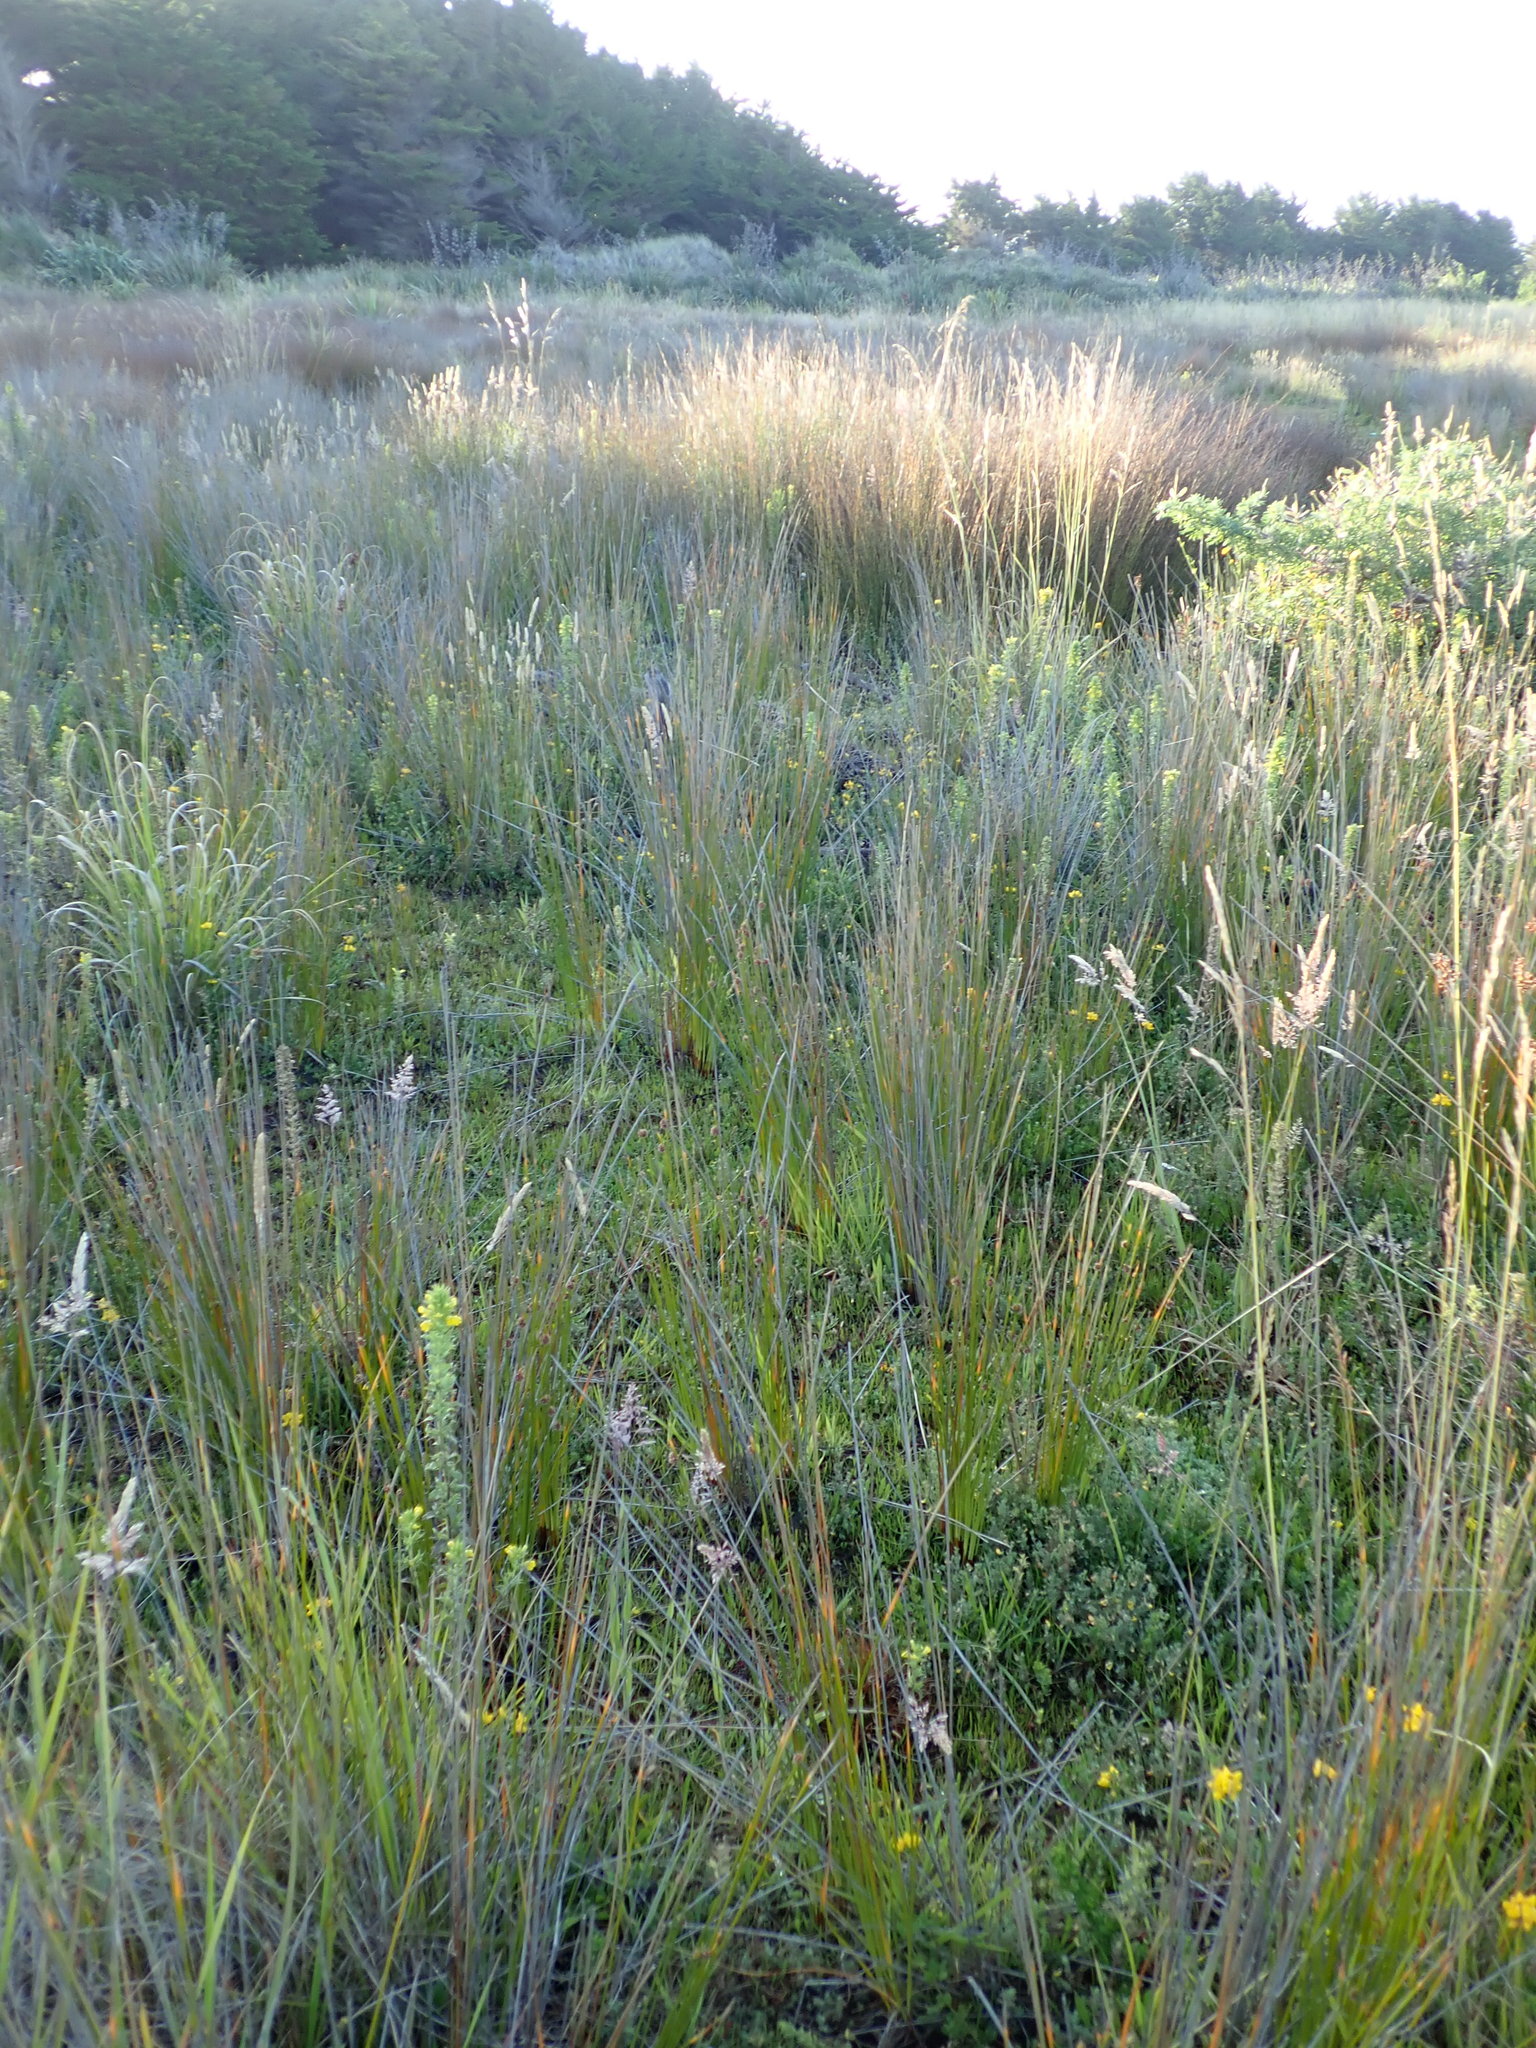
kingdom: Plantae
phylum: Tracheophyta
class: Liliopsida
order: Poales
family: Cyperaceae
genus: Ficinia
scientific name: Ficinia nodosa
